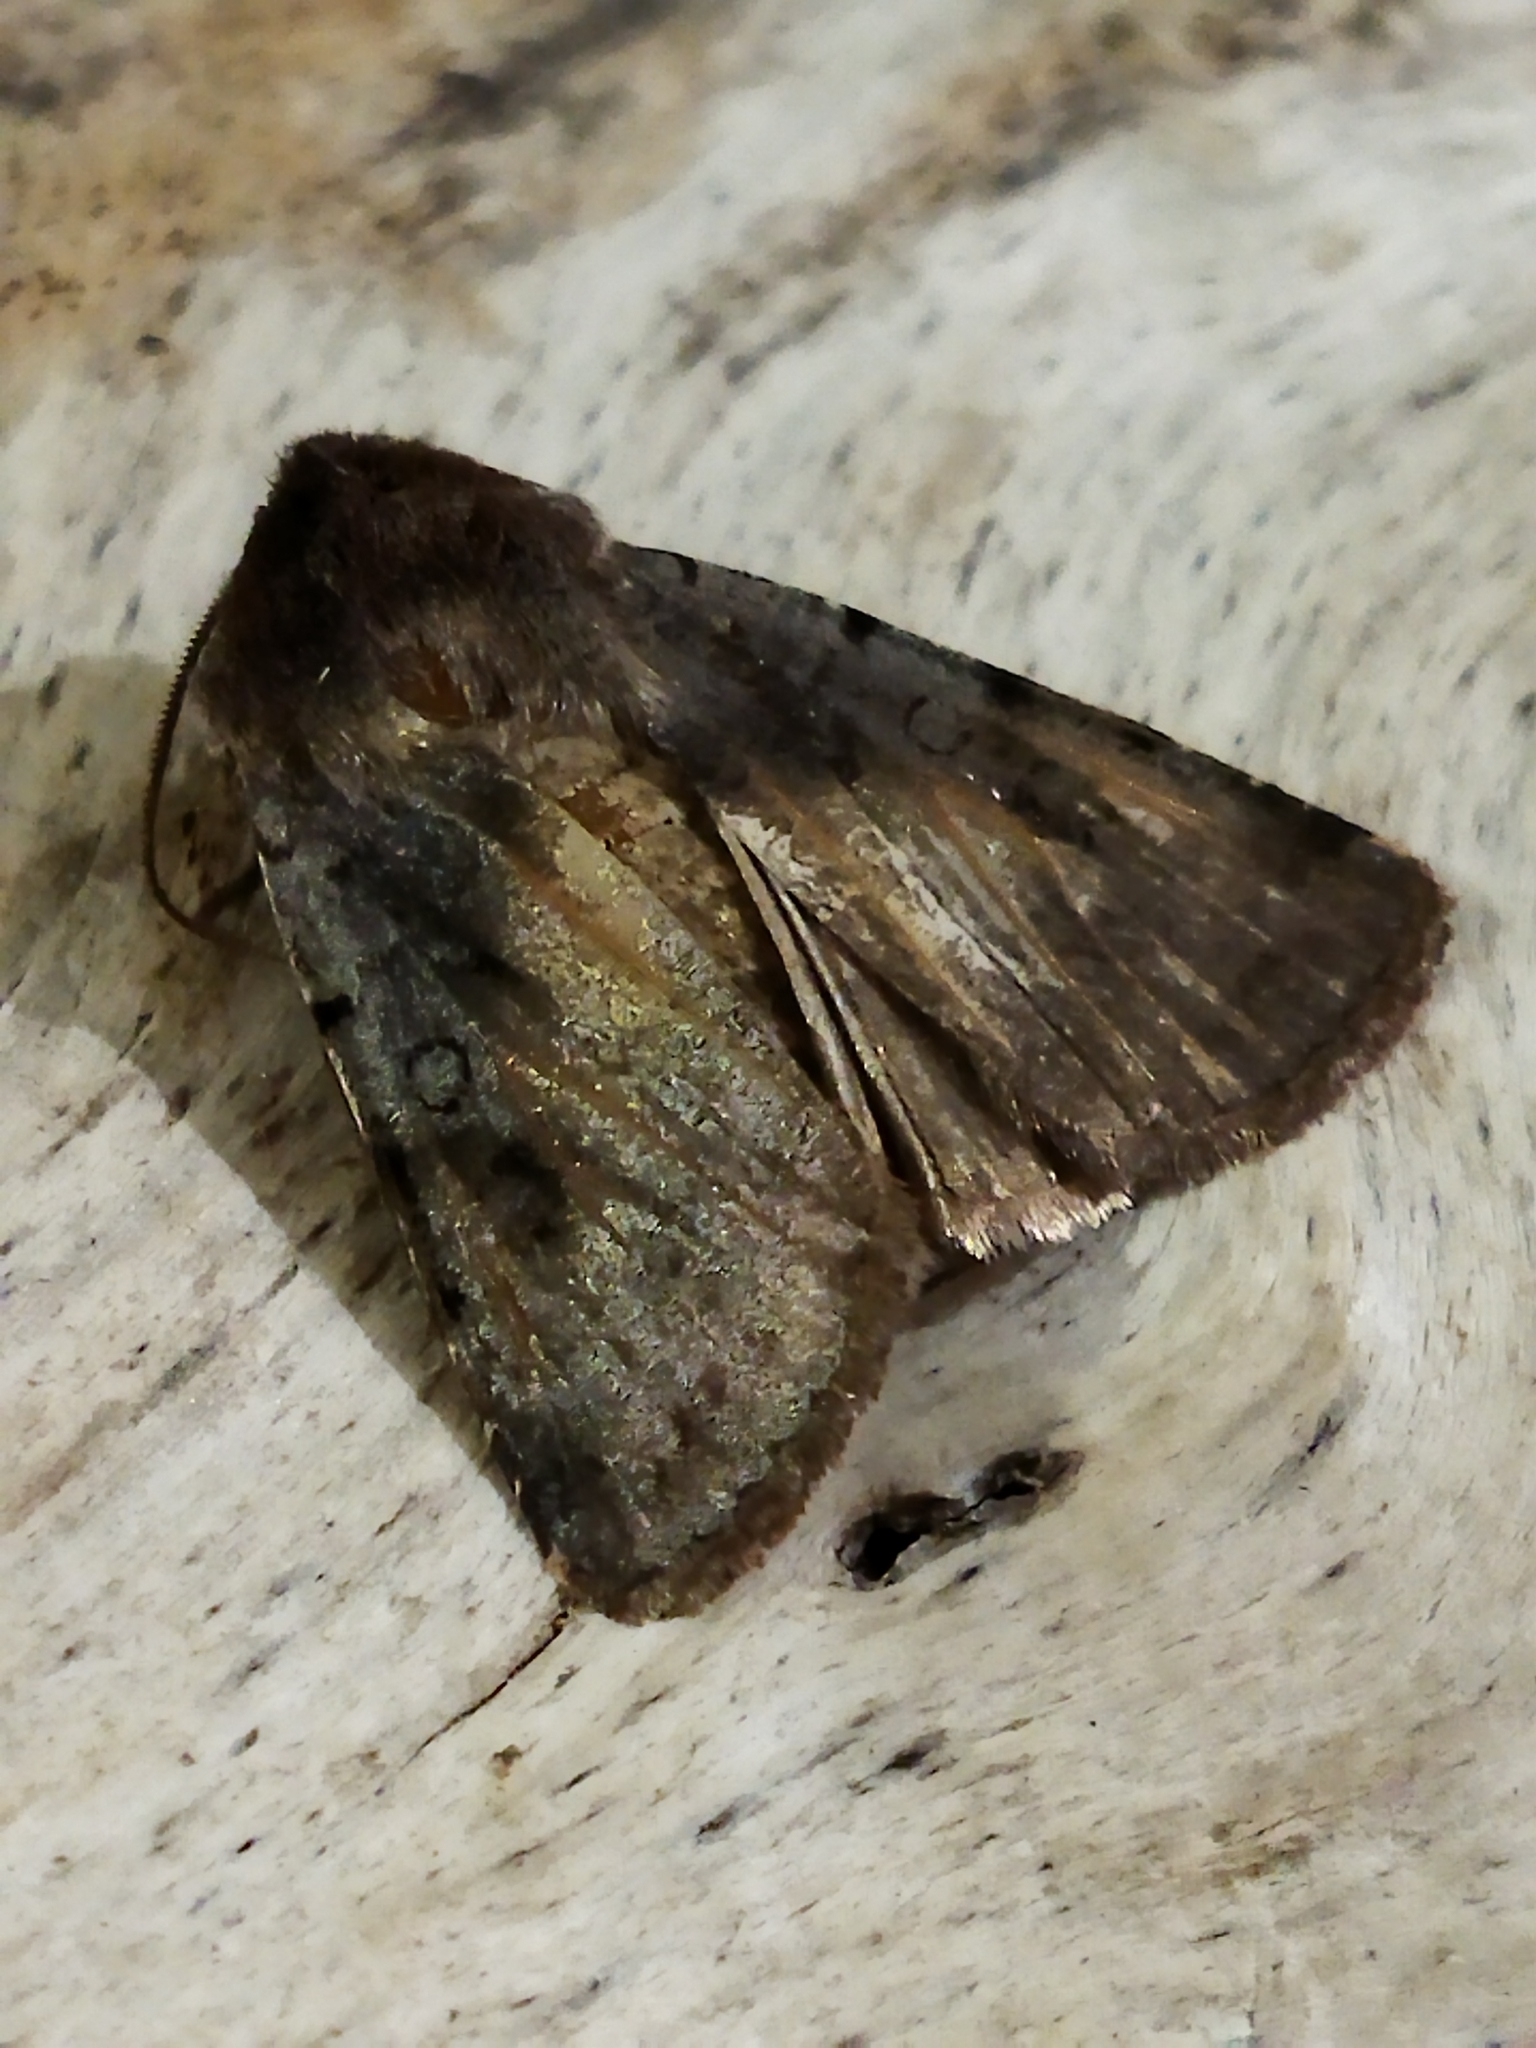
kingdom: Animalia
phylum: Arthropoda
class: Insecta
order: Lepidoptera
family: Noctuidae
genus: Cerastis
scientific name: Cerastis rubricosa
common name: Red chestnut
